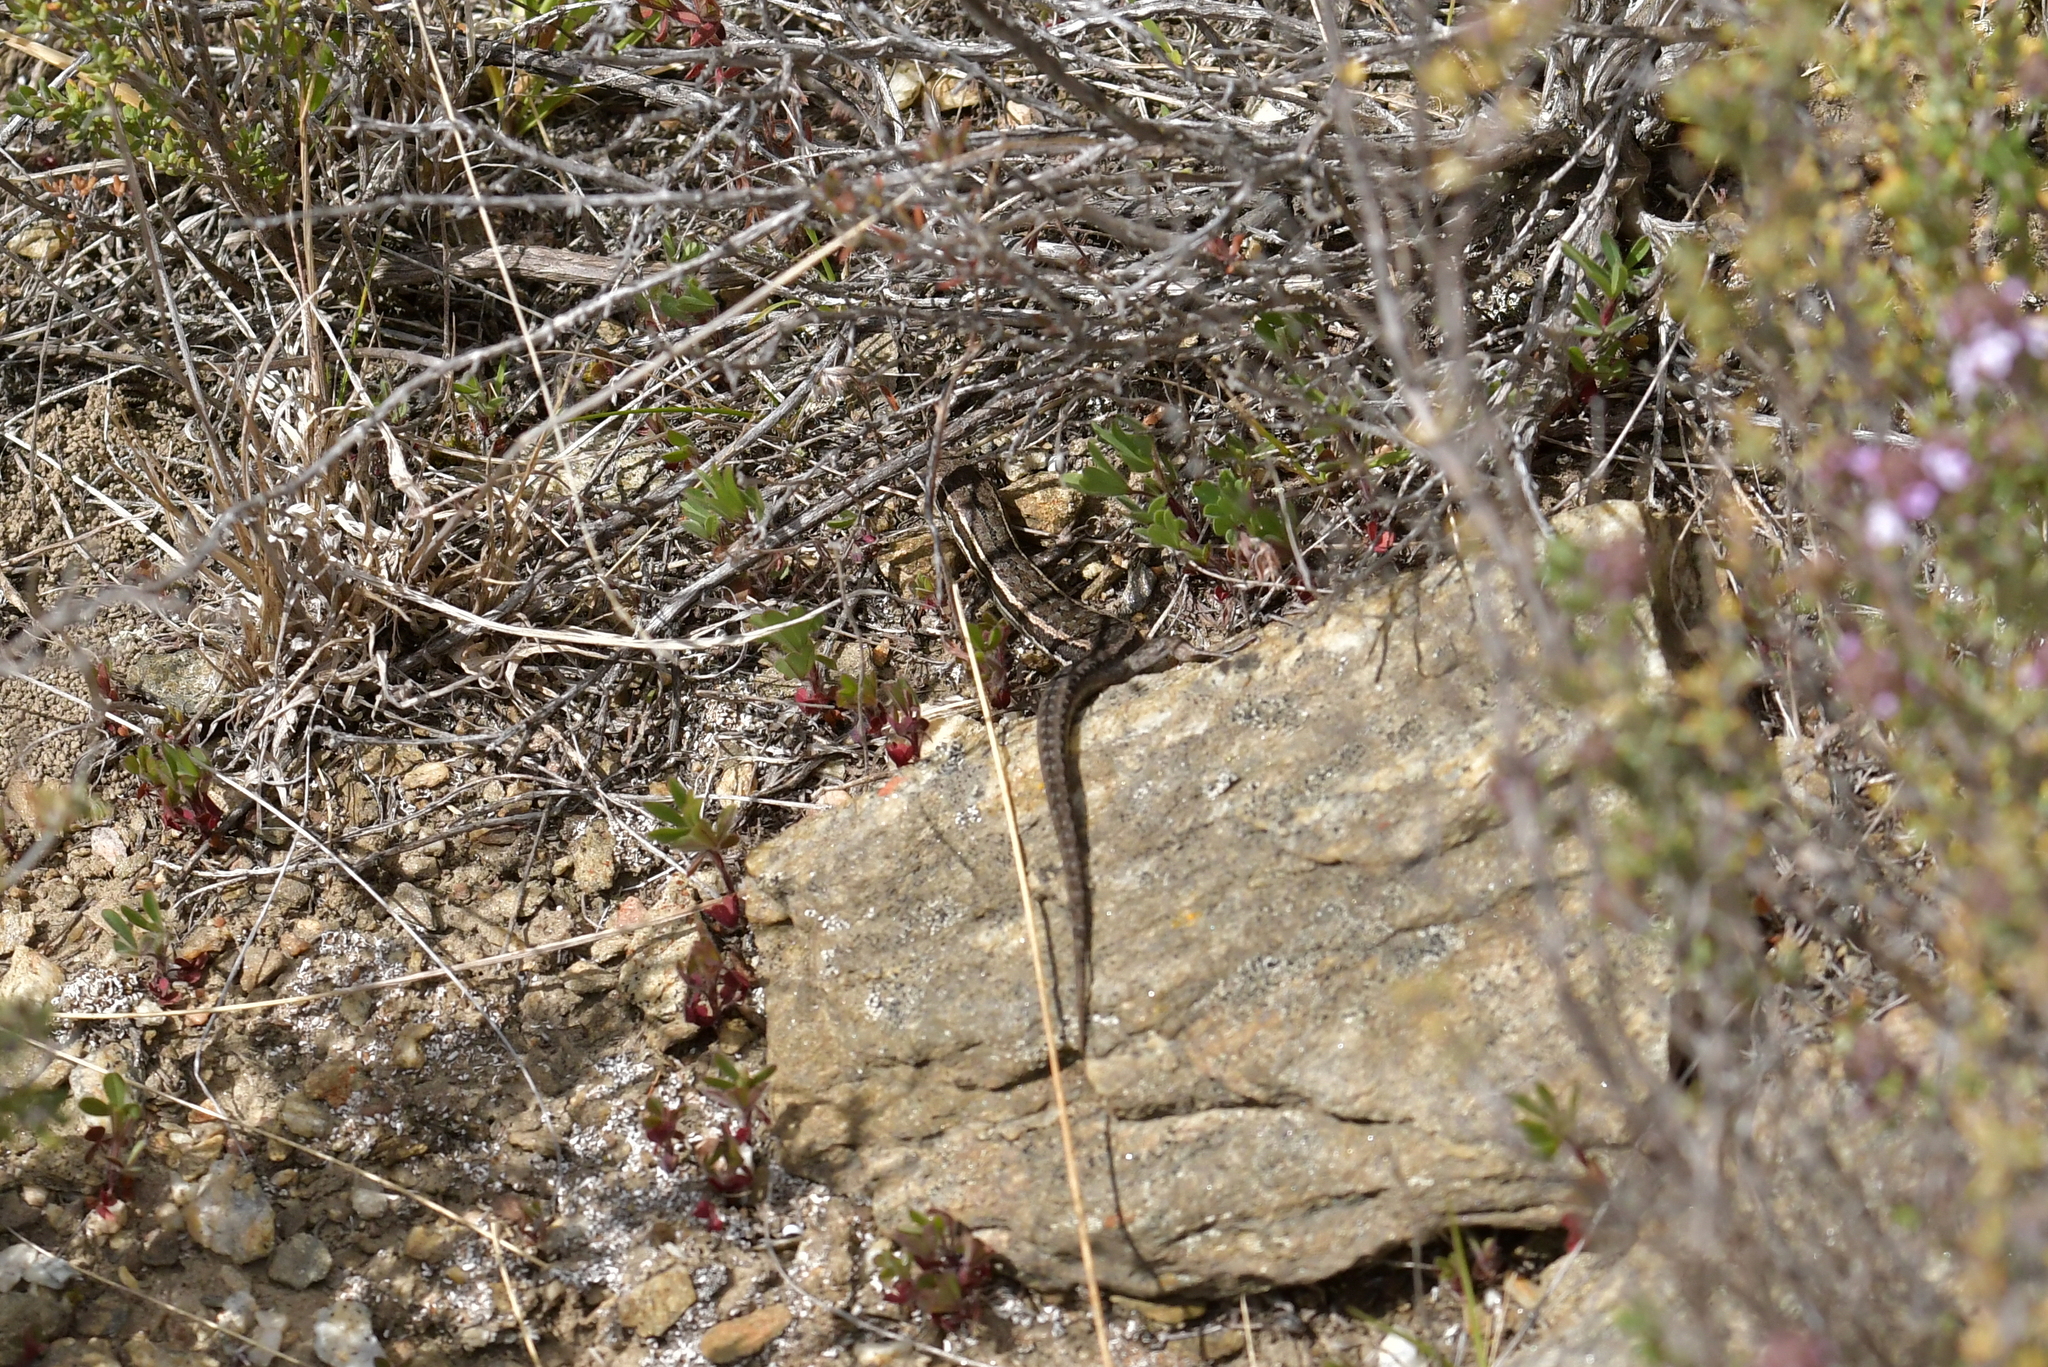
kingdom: Animalia
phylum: Chordata
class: Squamata
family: Scincidae
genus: Oligosoma
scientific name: Oligosoma maccanni
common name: Mccann’s skink
